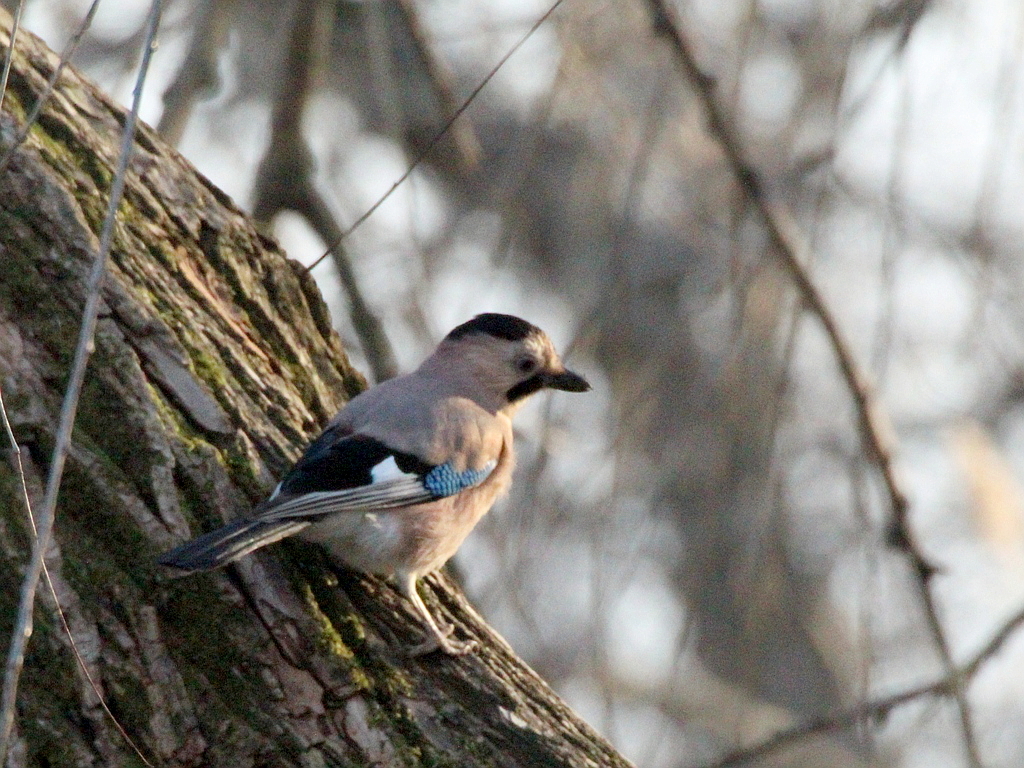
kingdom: Animalia
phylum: Chordata
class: Aves
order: Passeriformes
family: Corvidae
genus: Garrulus
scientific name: Garrulus glandarius
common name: Eurasian jay
